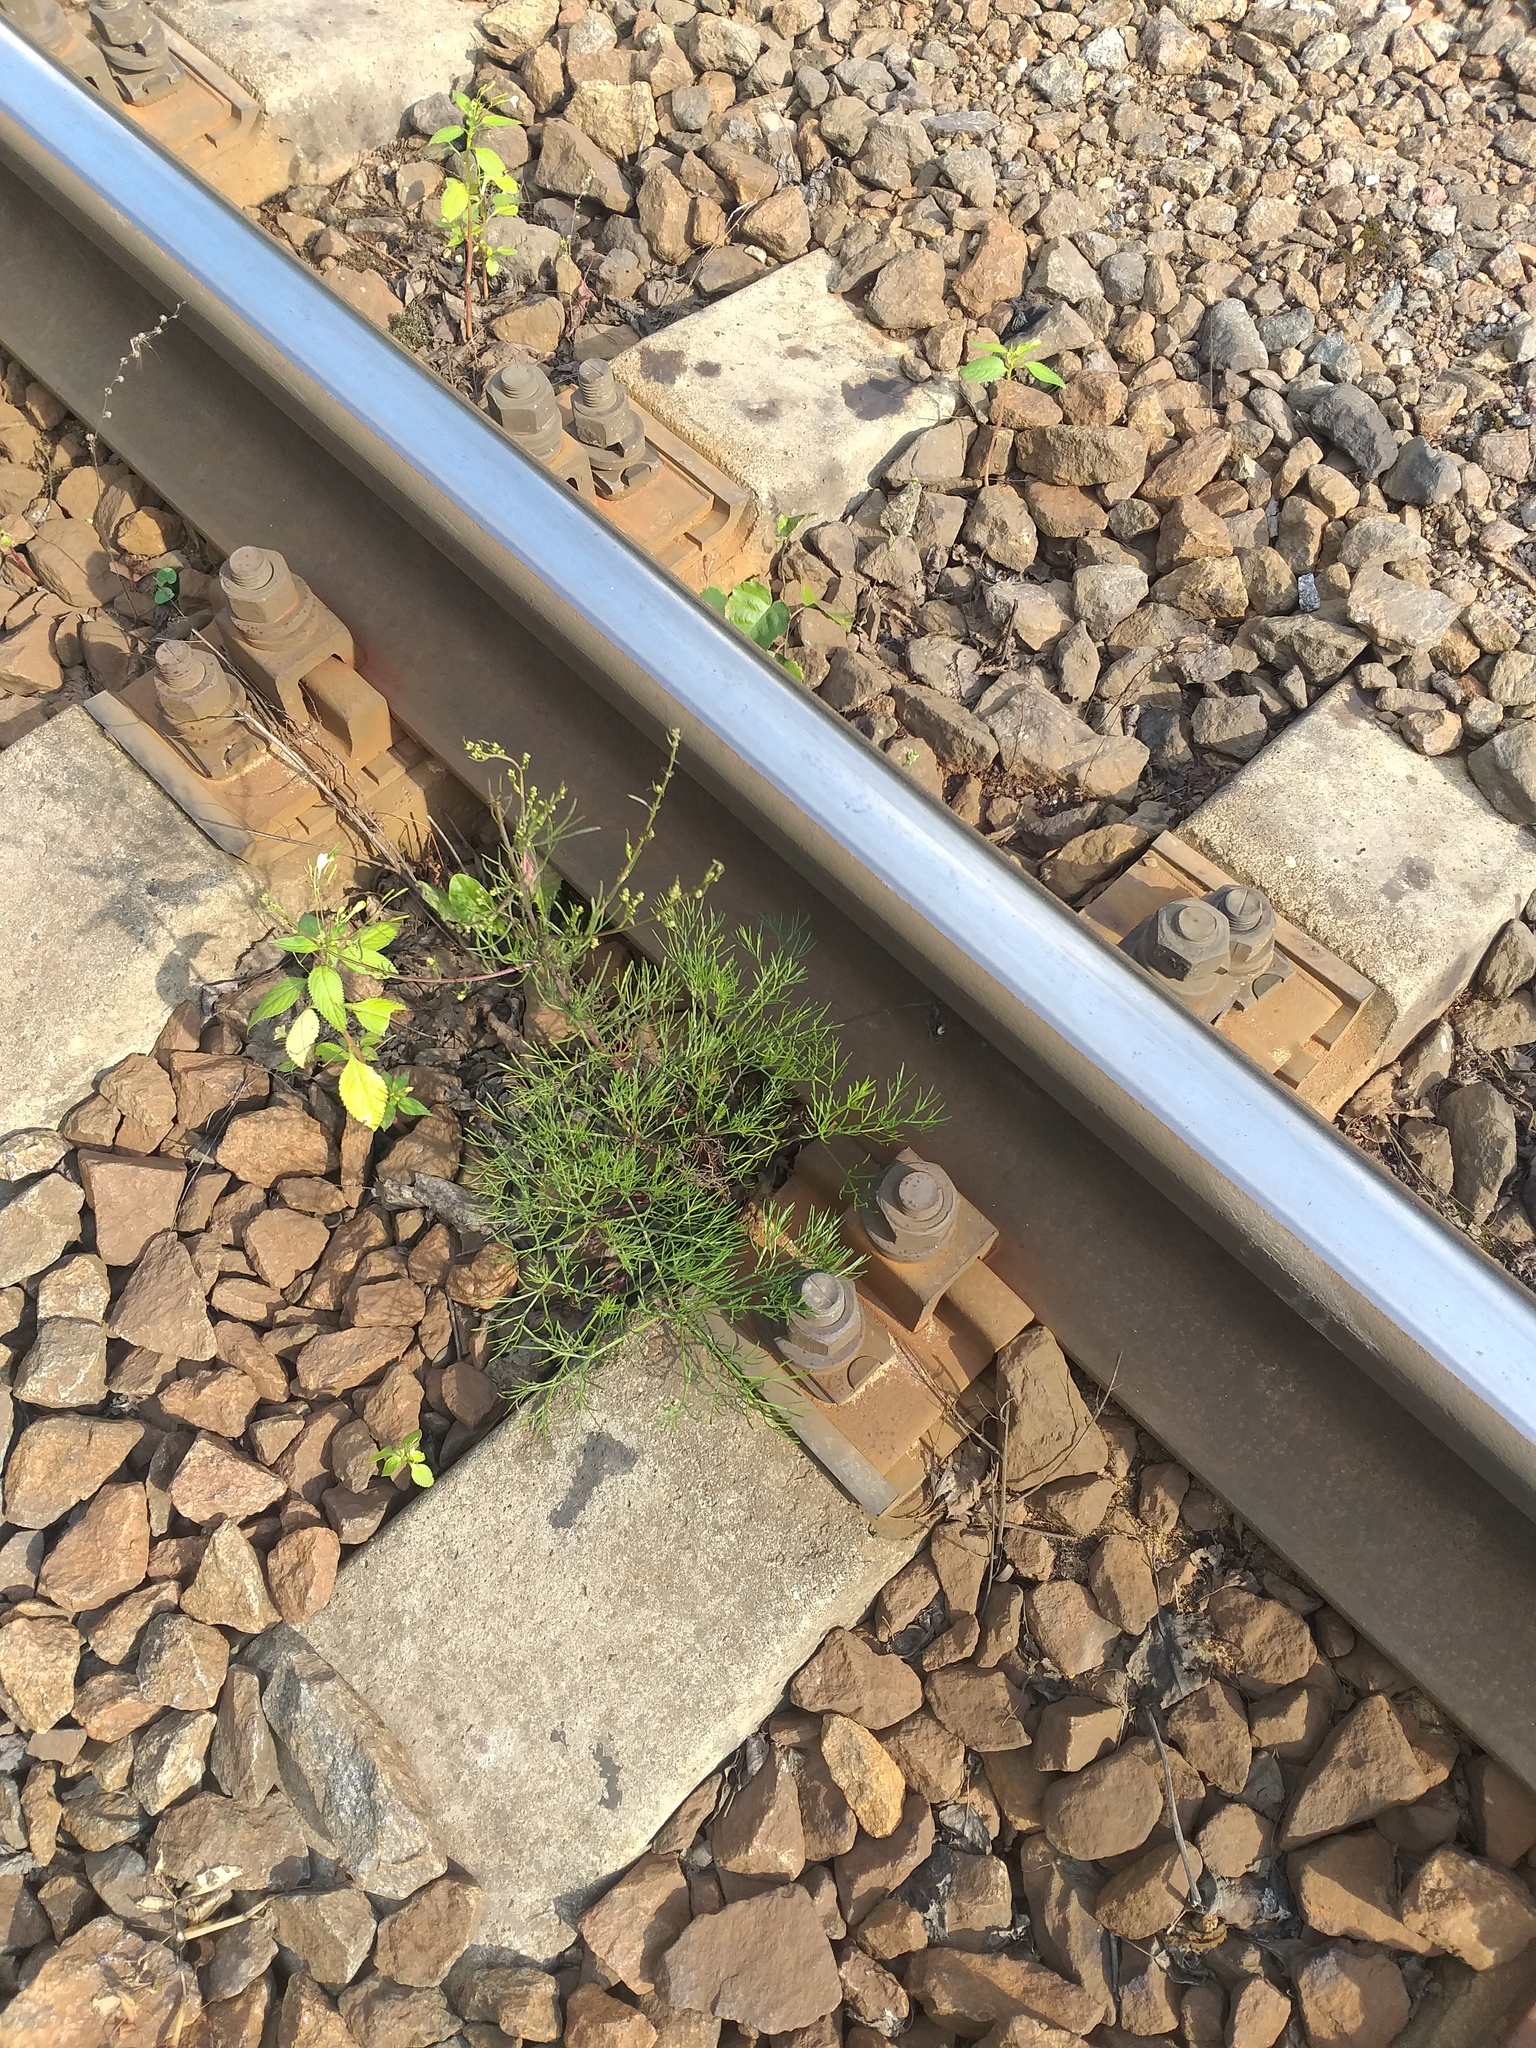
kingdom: Plantae
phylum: Tracheophyta
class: Magnoliopsida
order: Asterales
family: Asteraceae
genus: Artemisia
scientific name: Artemisia campestris
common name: Field wormwood
